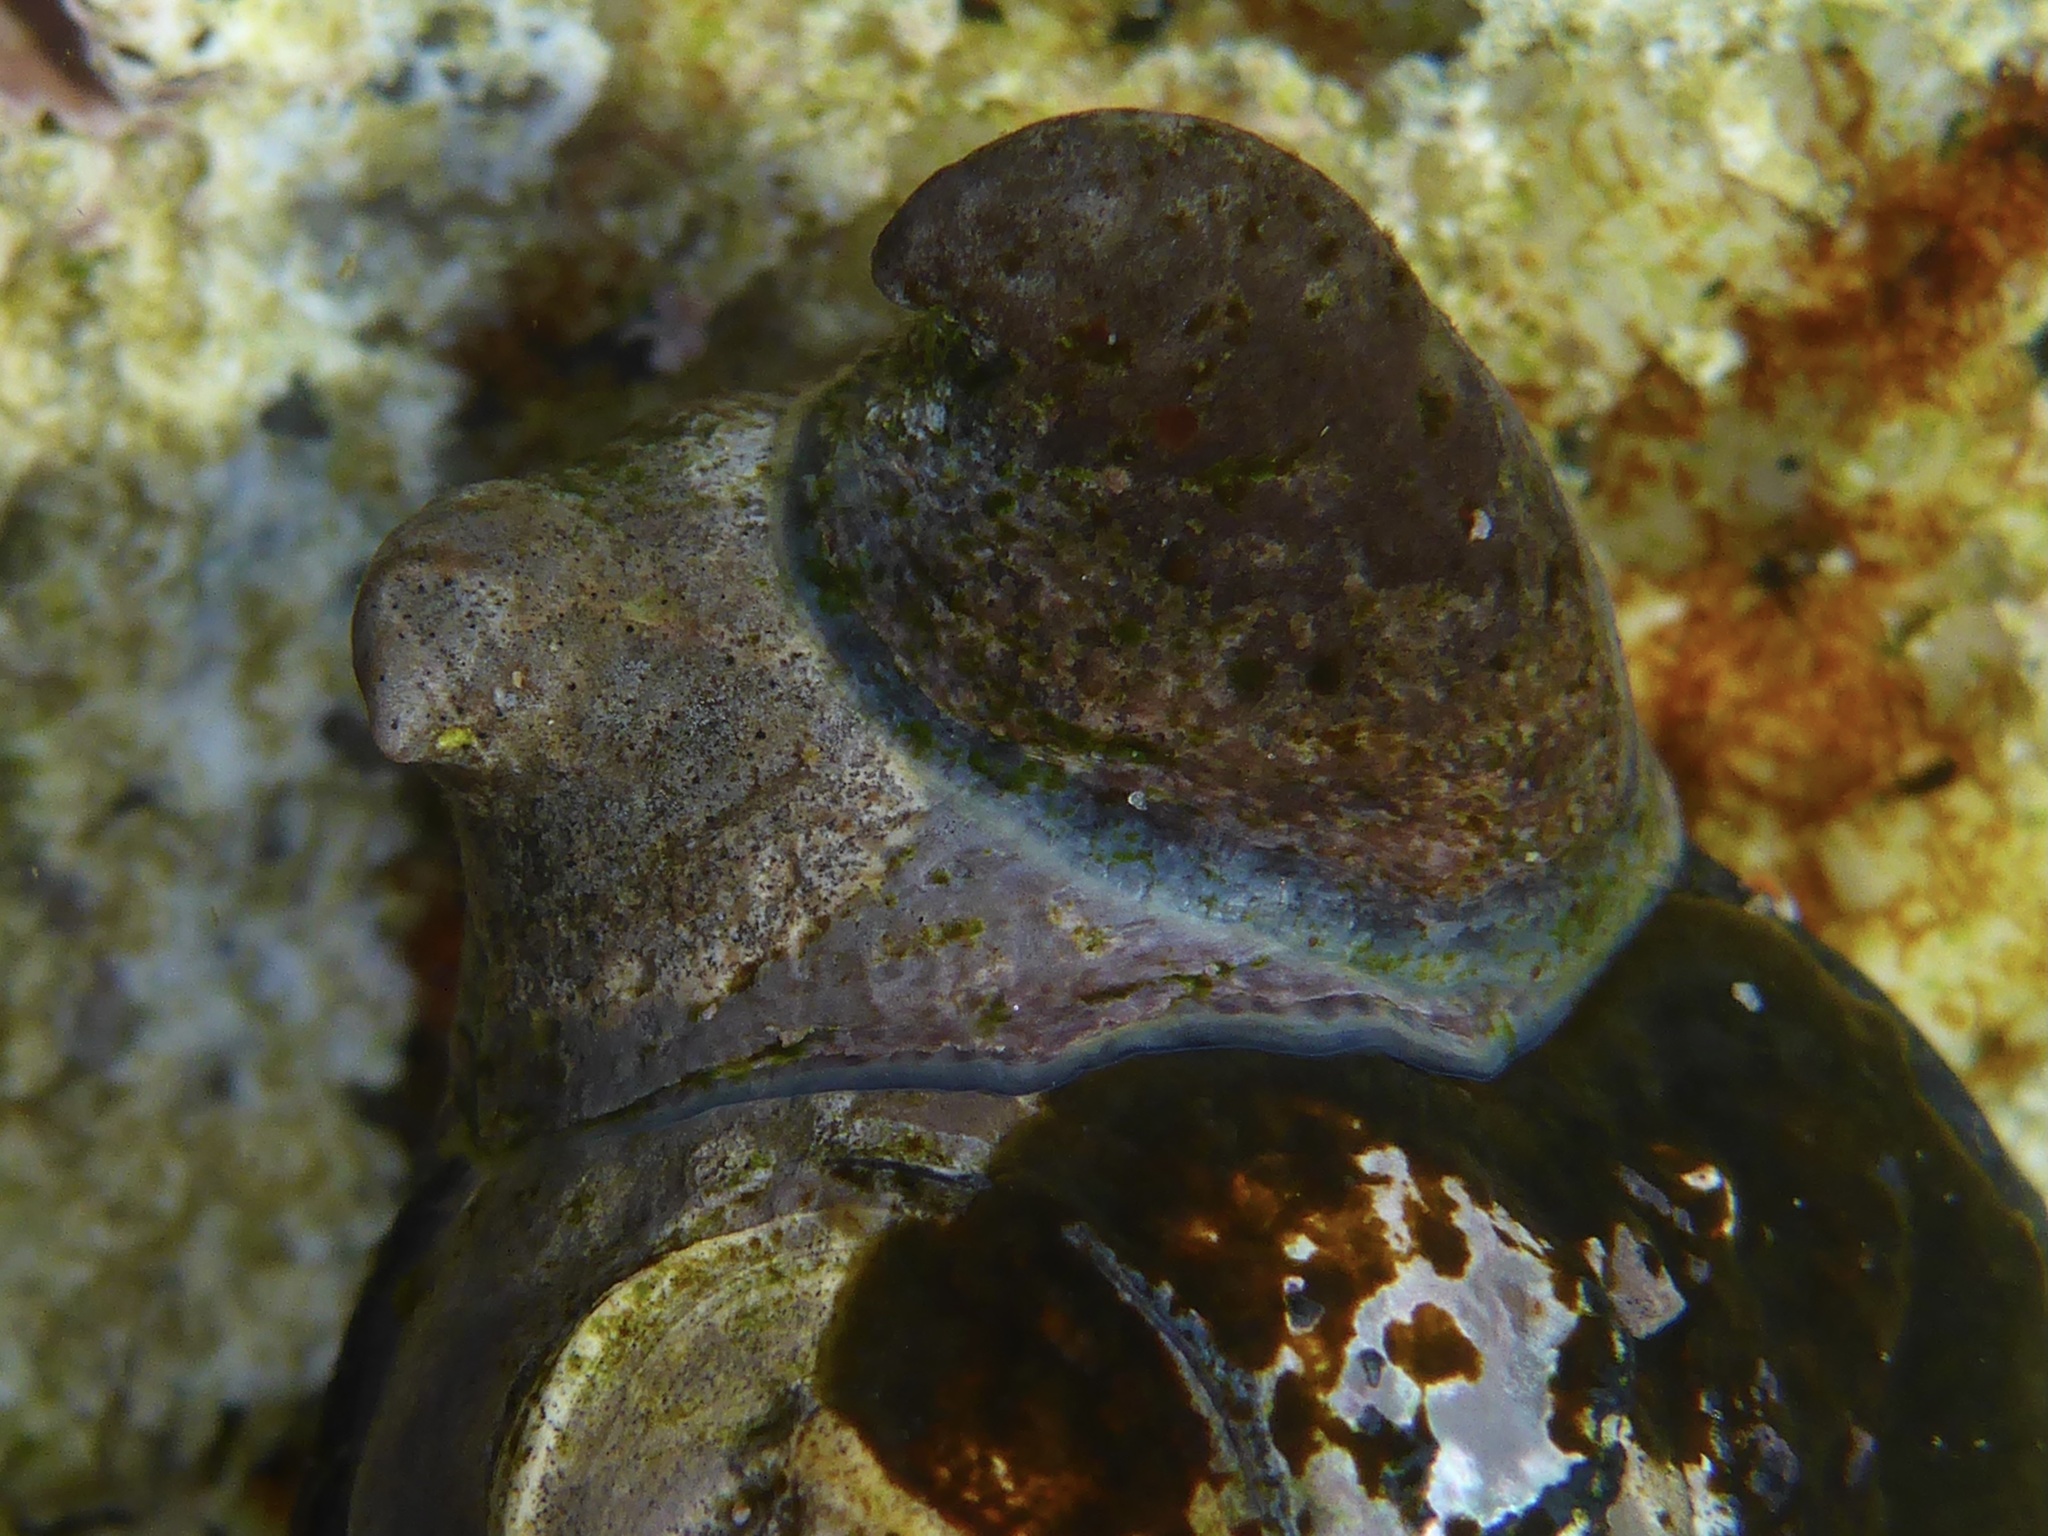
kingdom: Animalia
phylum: Mollusca
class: Gastropoda
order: Littorinimorpha
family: Calyptraeidae
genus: Crepidula
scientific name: Crepidula adunca
